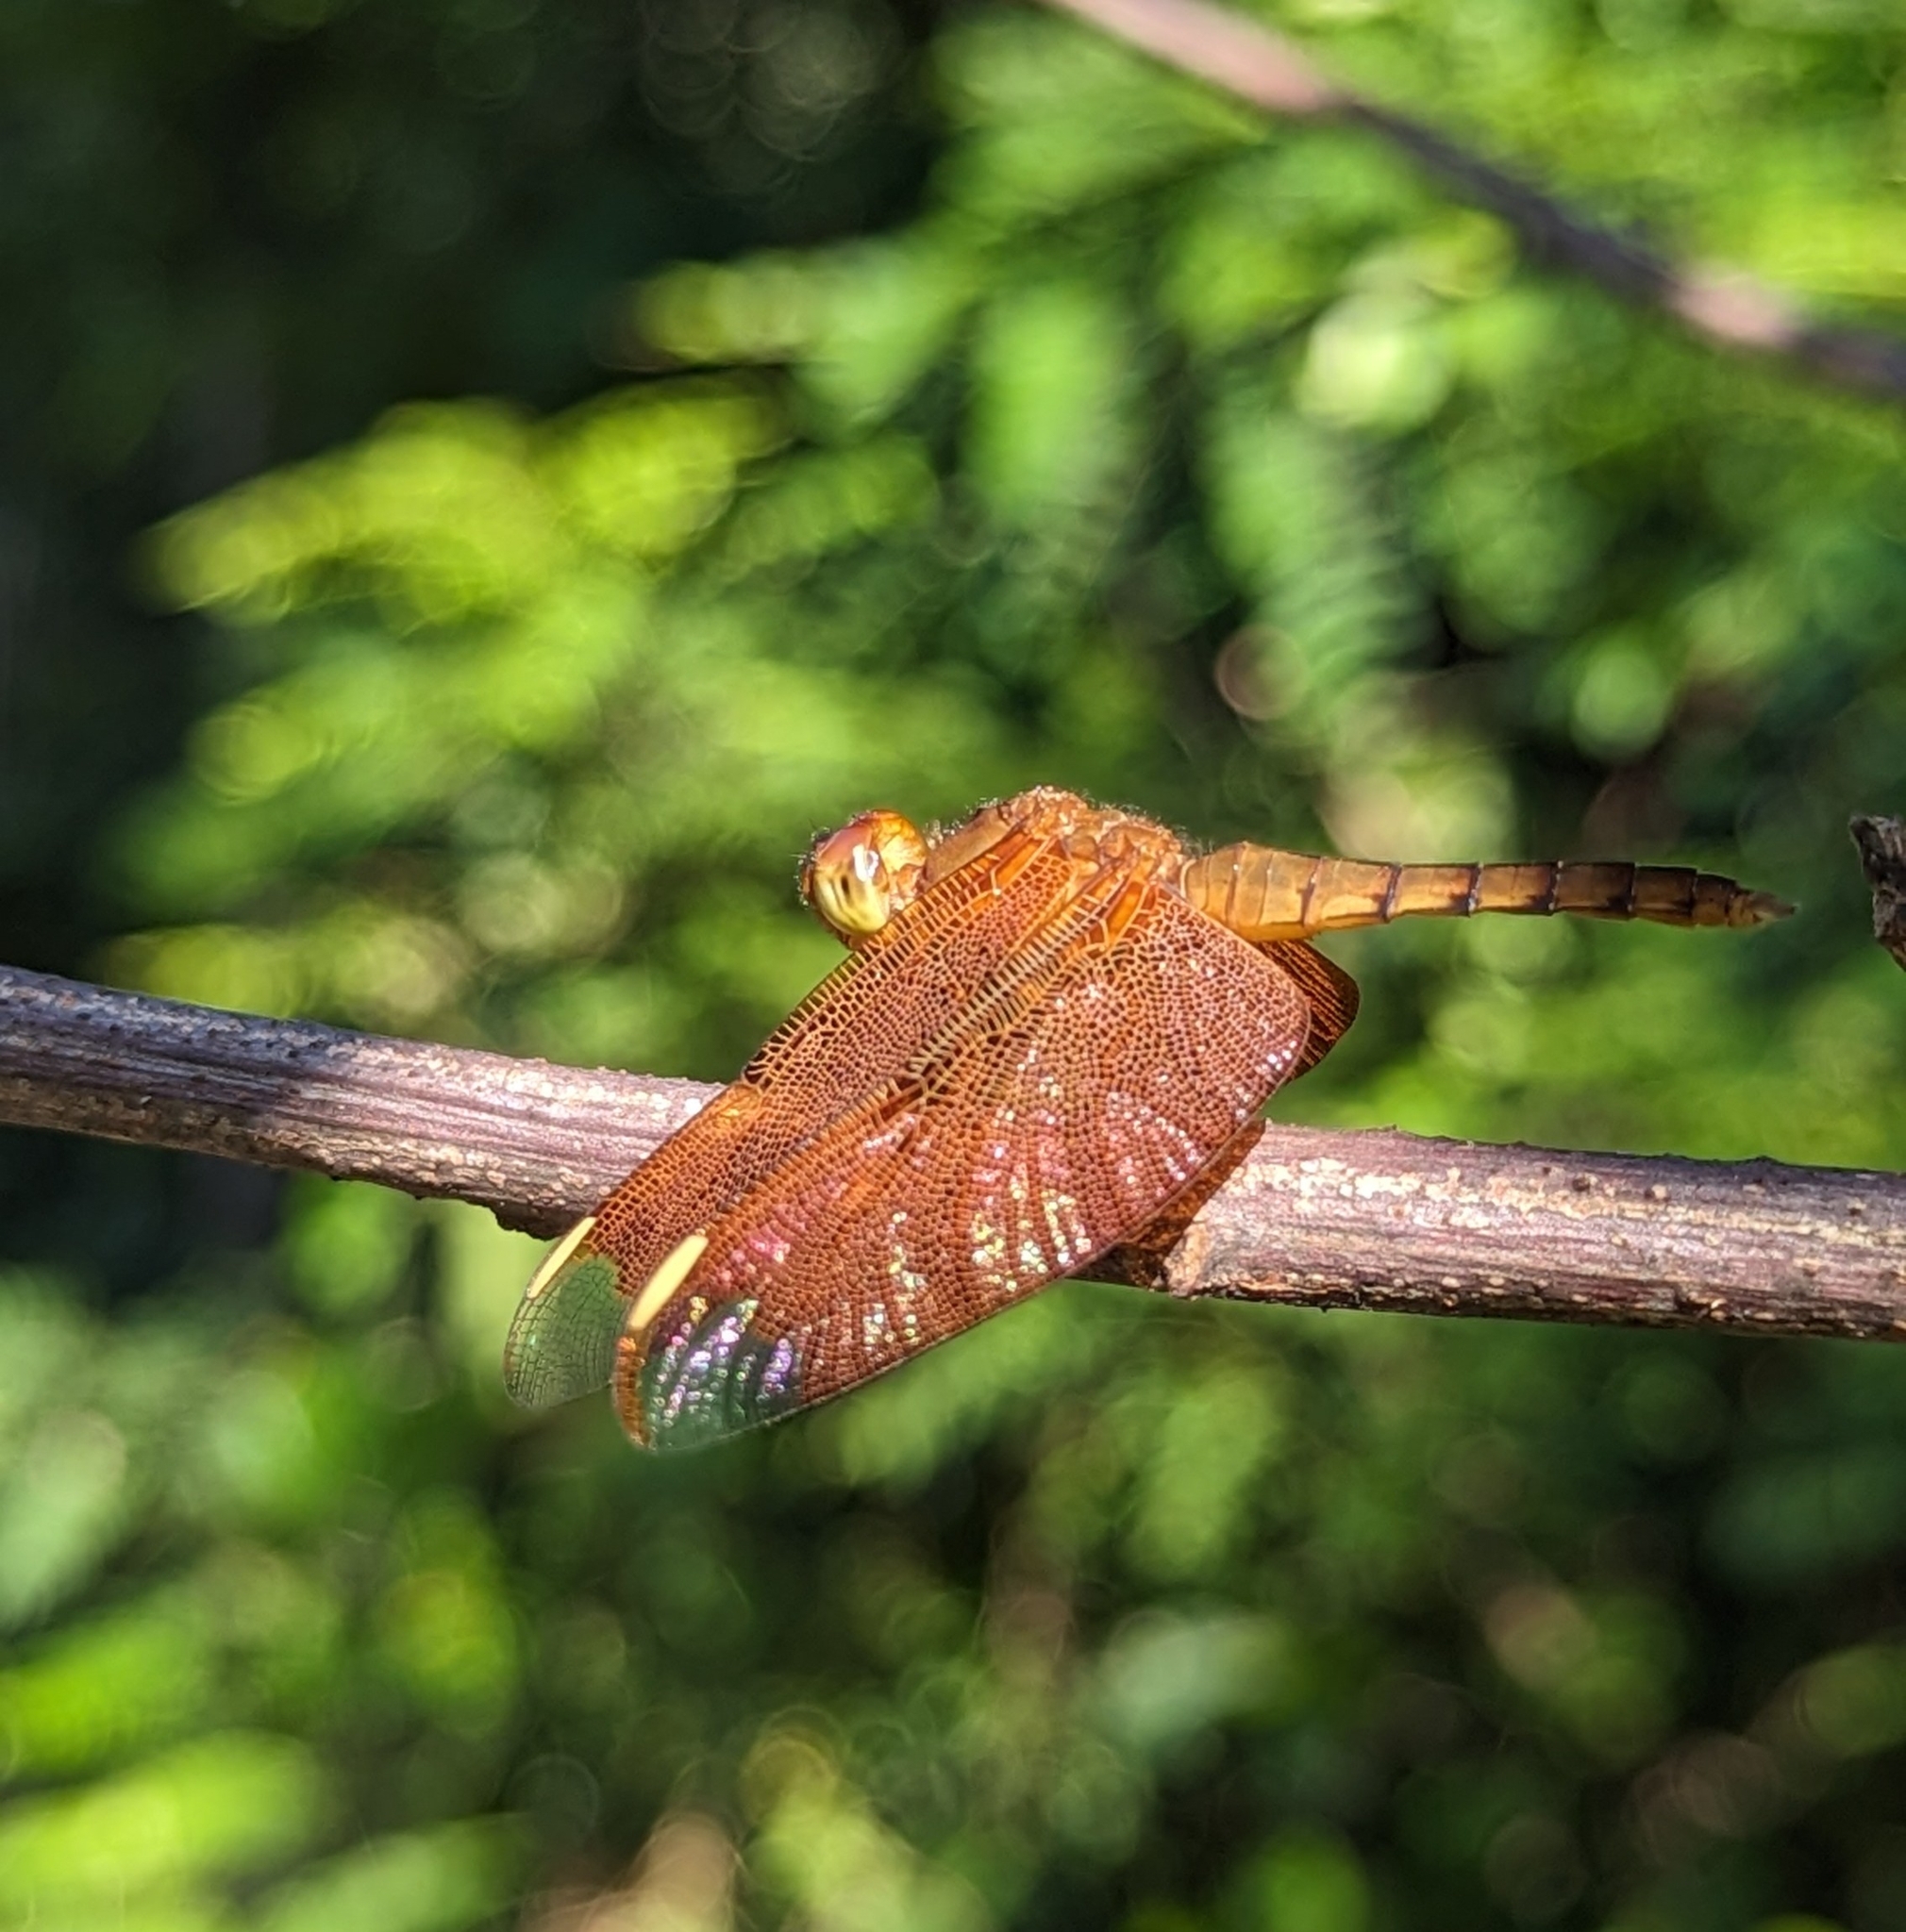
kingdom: Animalia
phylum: Arthropoda
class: Insecta
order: Odonata
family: Libellulidae
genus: Neurothemis
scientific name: Neurothemis fulvia
